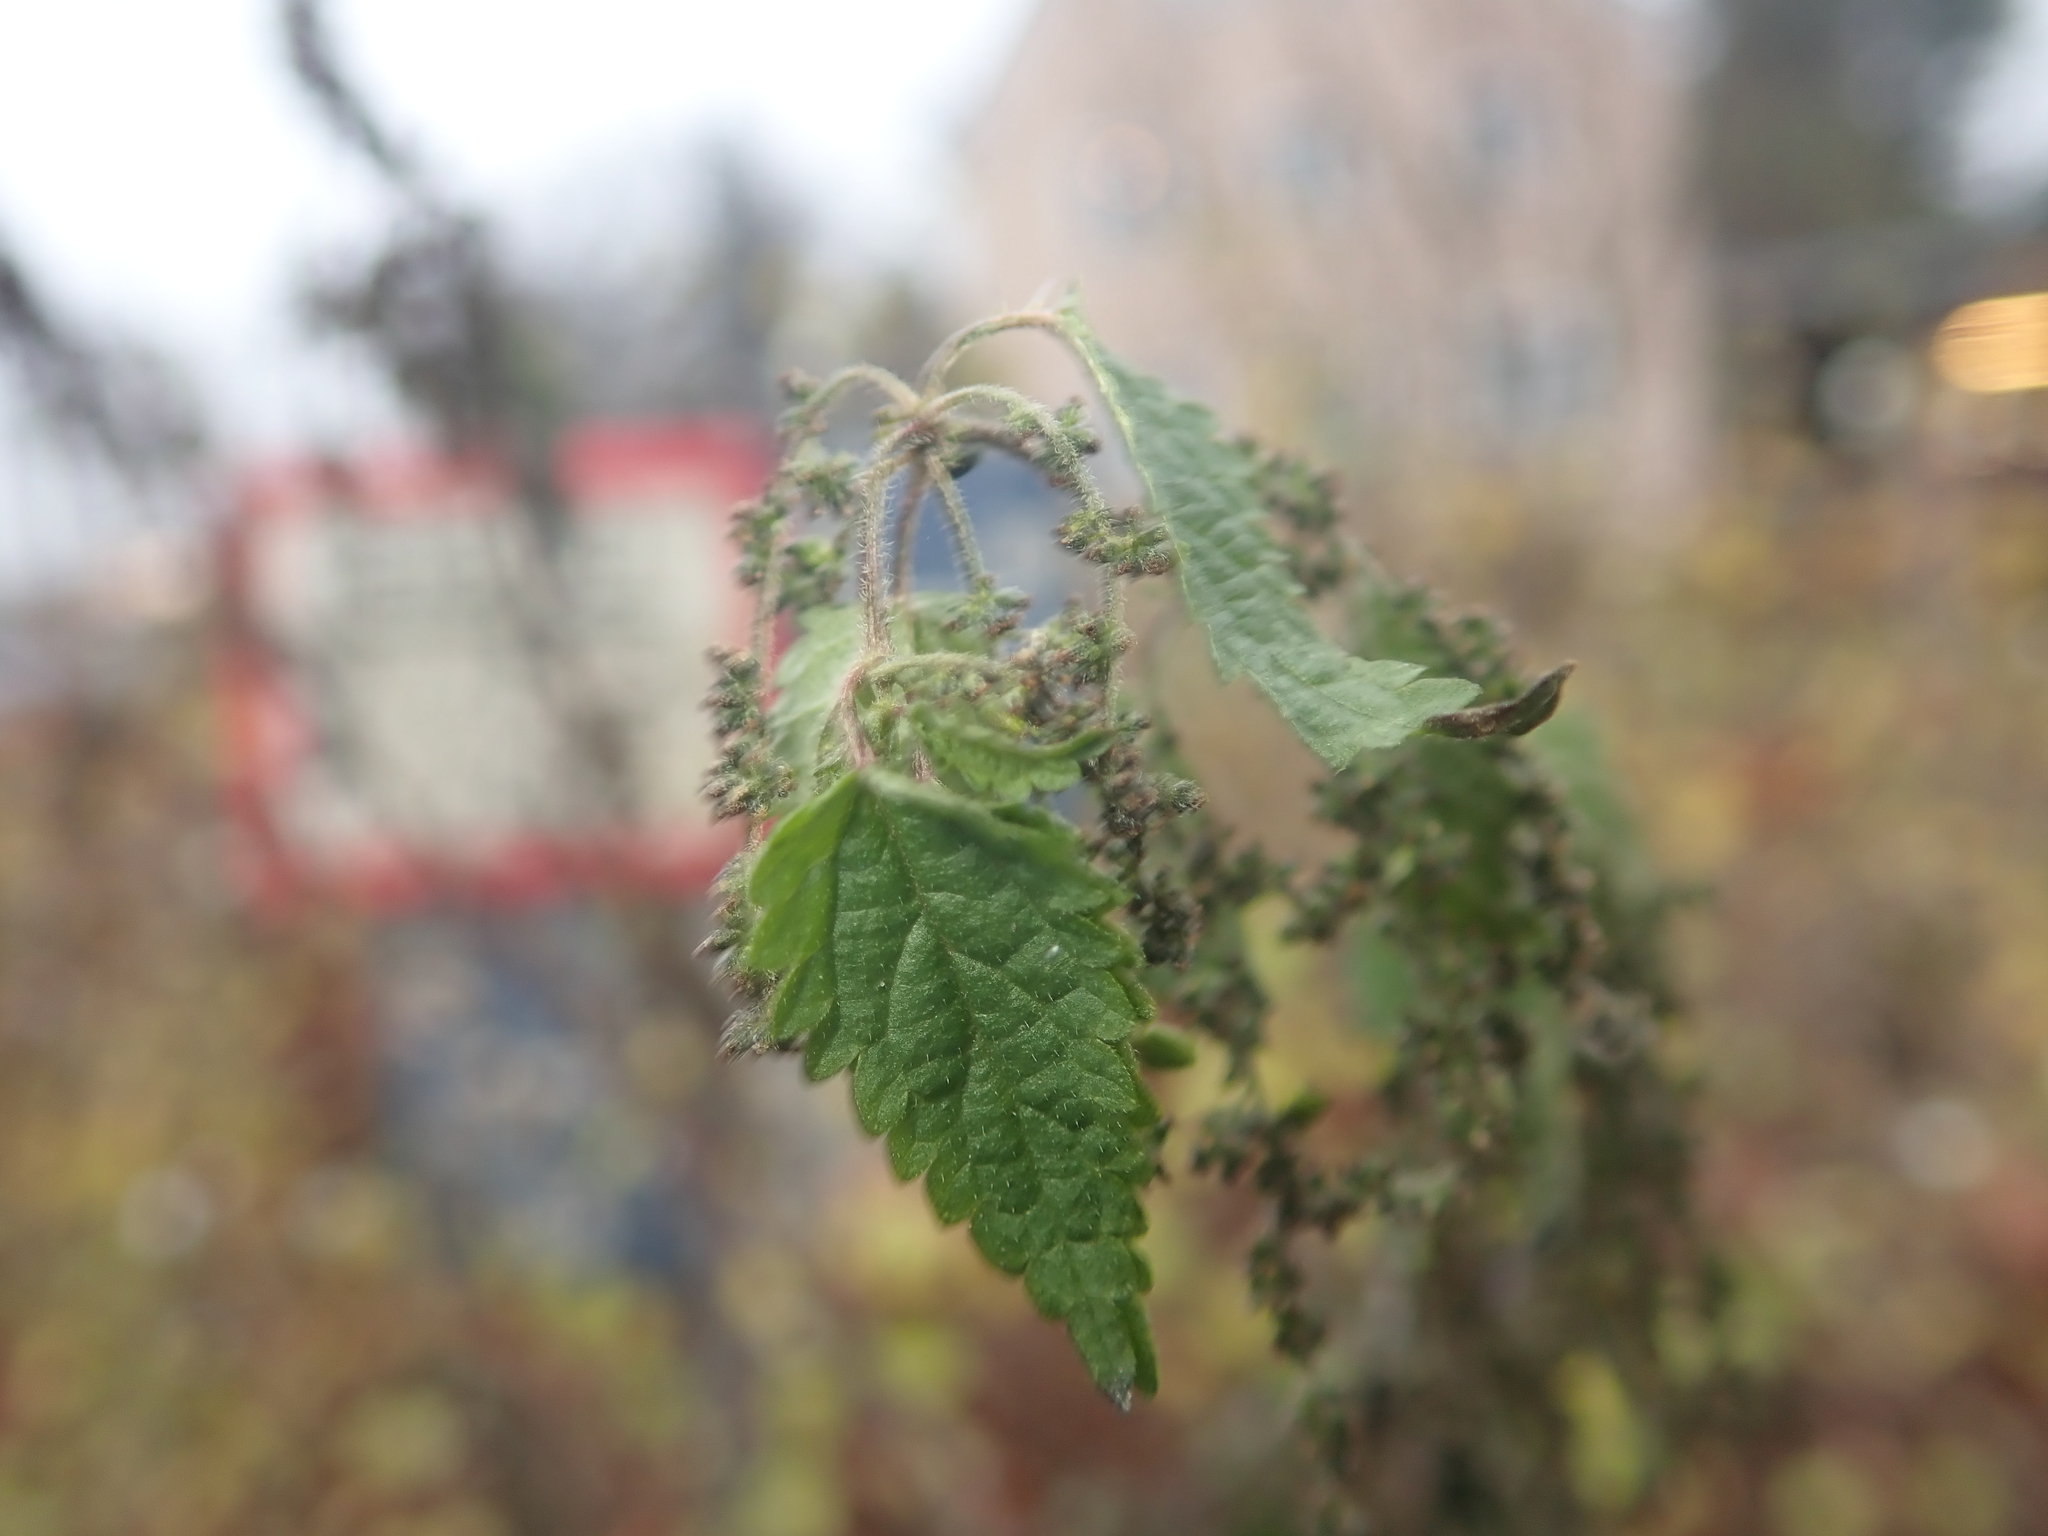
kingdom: Plantae
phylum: Tracheophyta
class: Magnoliopsida
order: Rosales
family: Urticaceae
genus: Urtica
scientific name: Urtica dioica
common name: Common nettle
